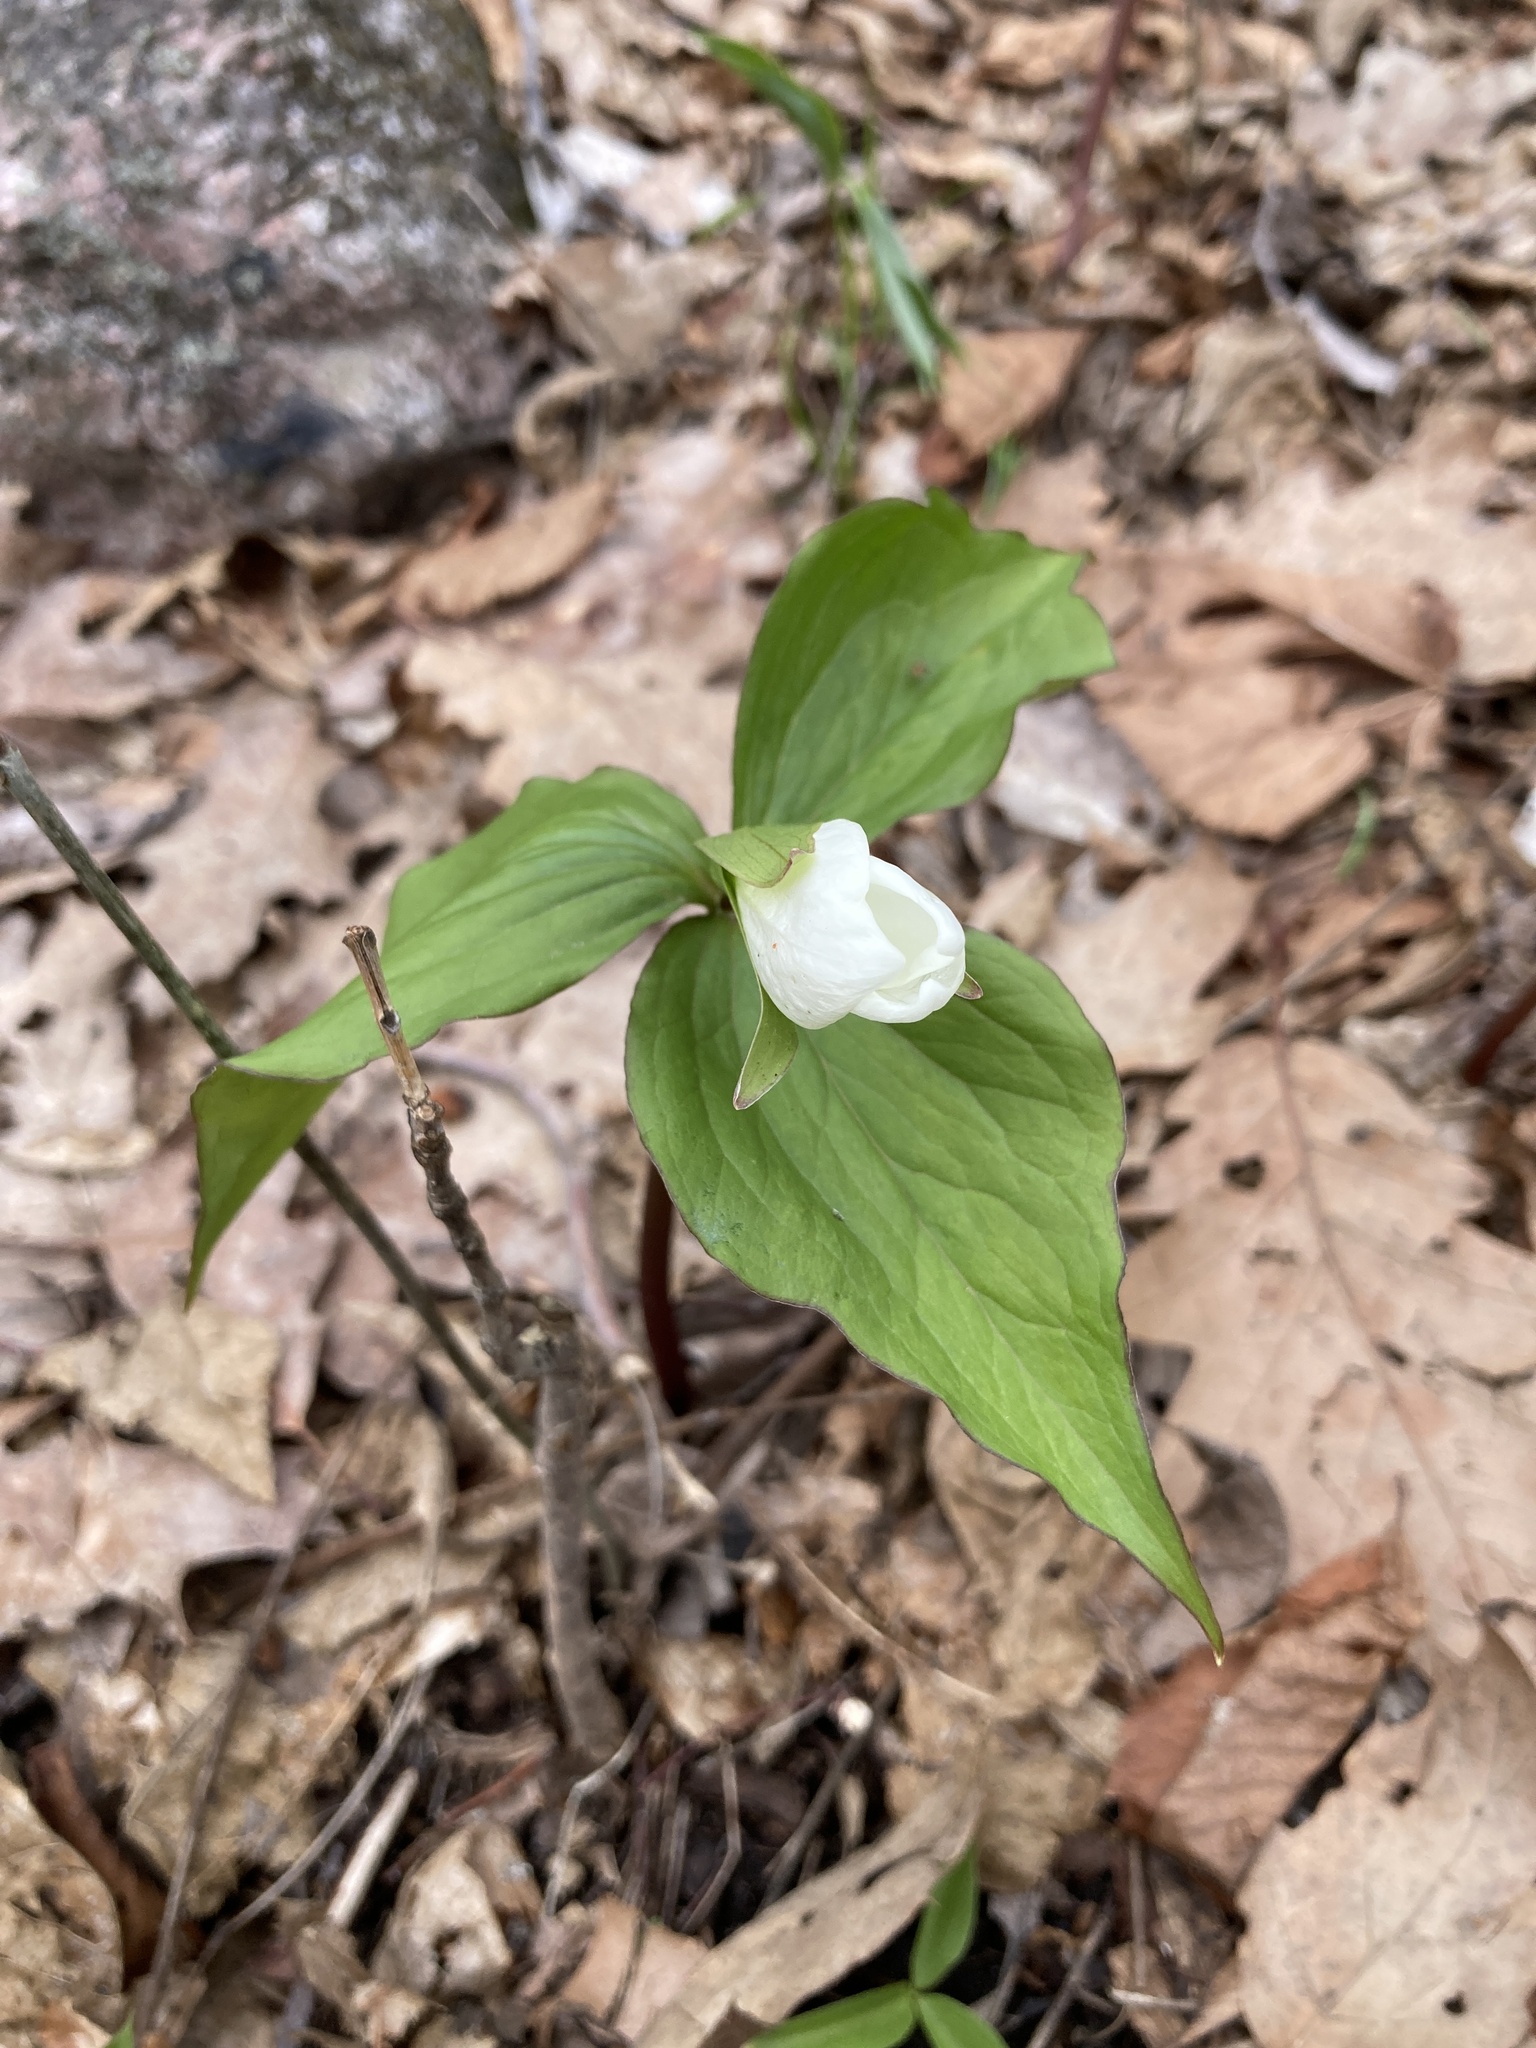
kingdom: Plantae
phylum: Tracheophyta
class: Liliopsida
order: Liliales
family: Melanthiaceae
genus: Trillium
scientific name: Trillium grandiflorum
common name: Great white trillium
